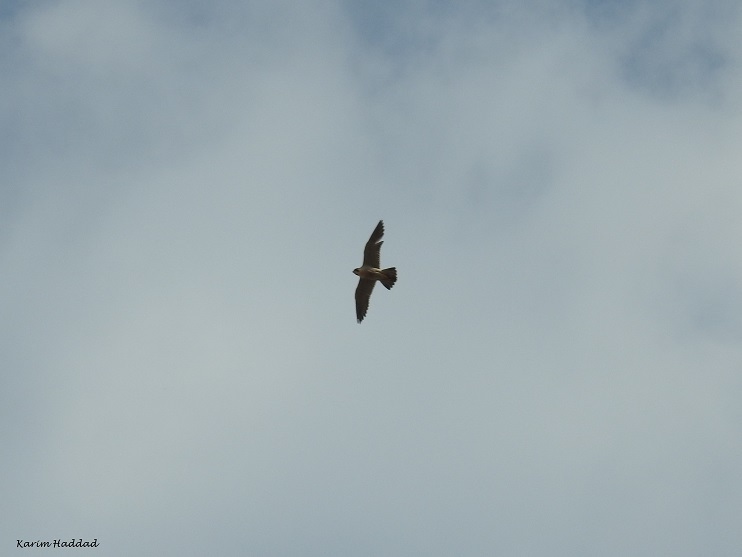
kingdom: Animalia
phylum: Chordata
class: Aves
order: Falconiformes
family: Falconidae
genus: Falco
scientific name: Falco peregrinus
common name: Peregrine falcon
